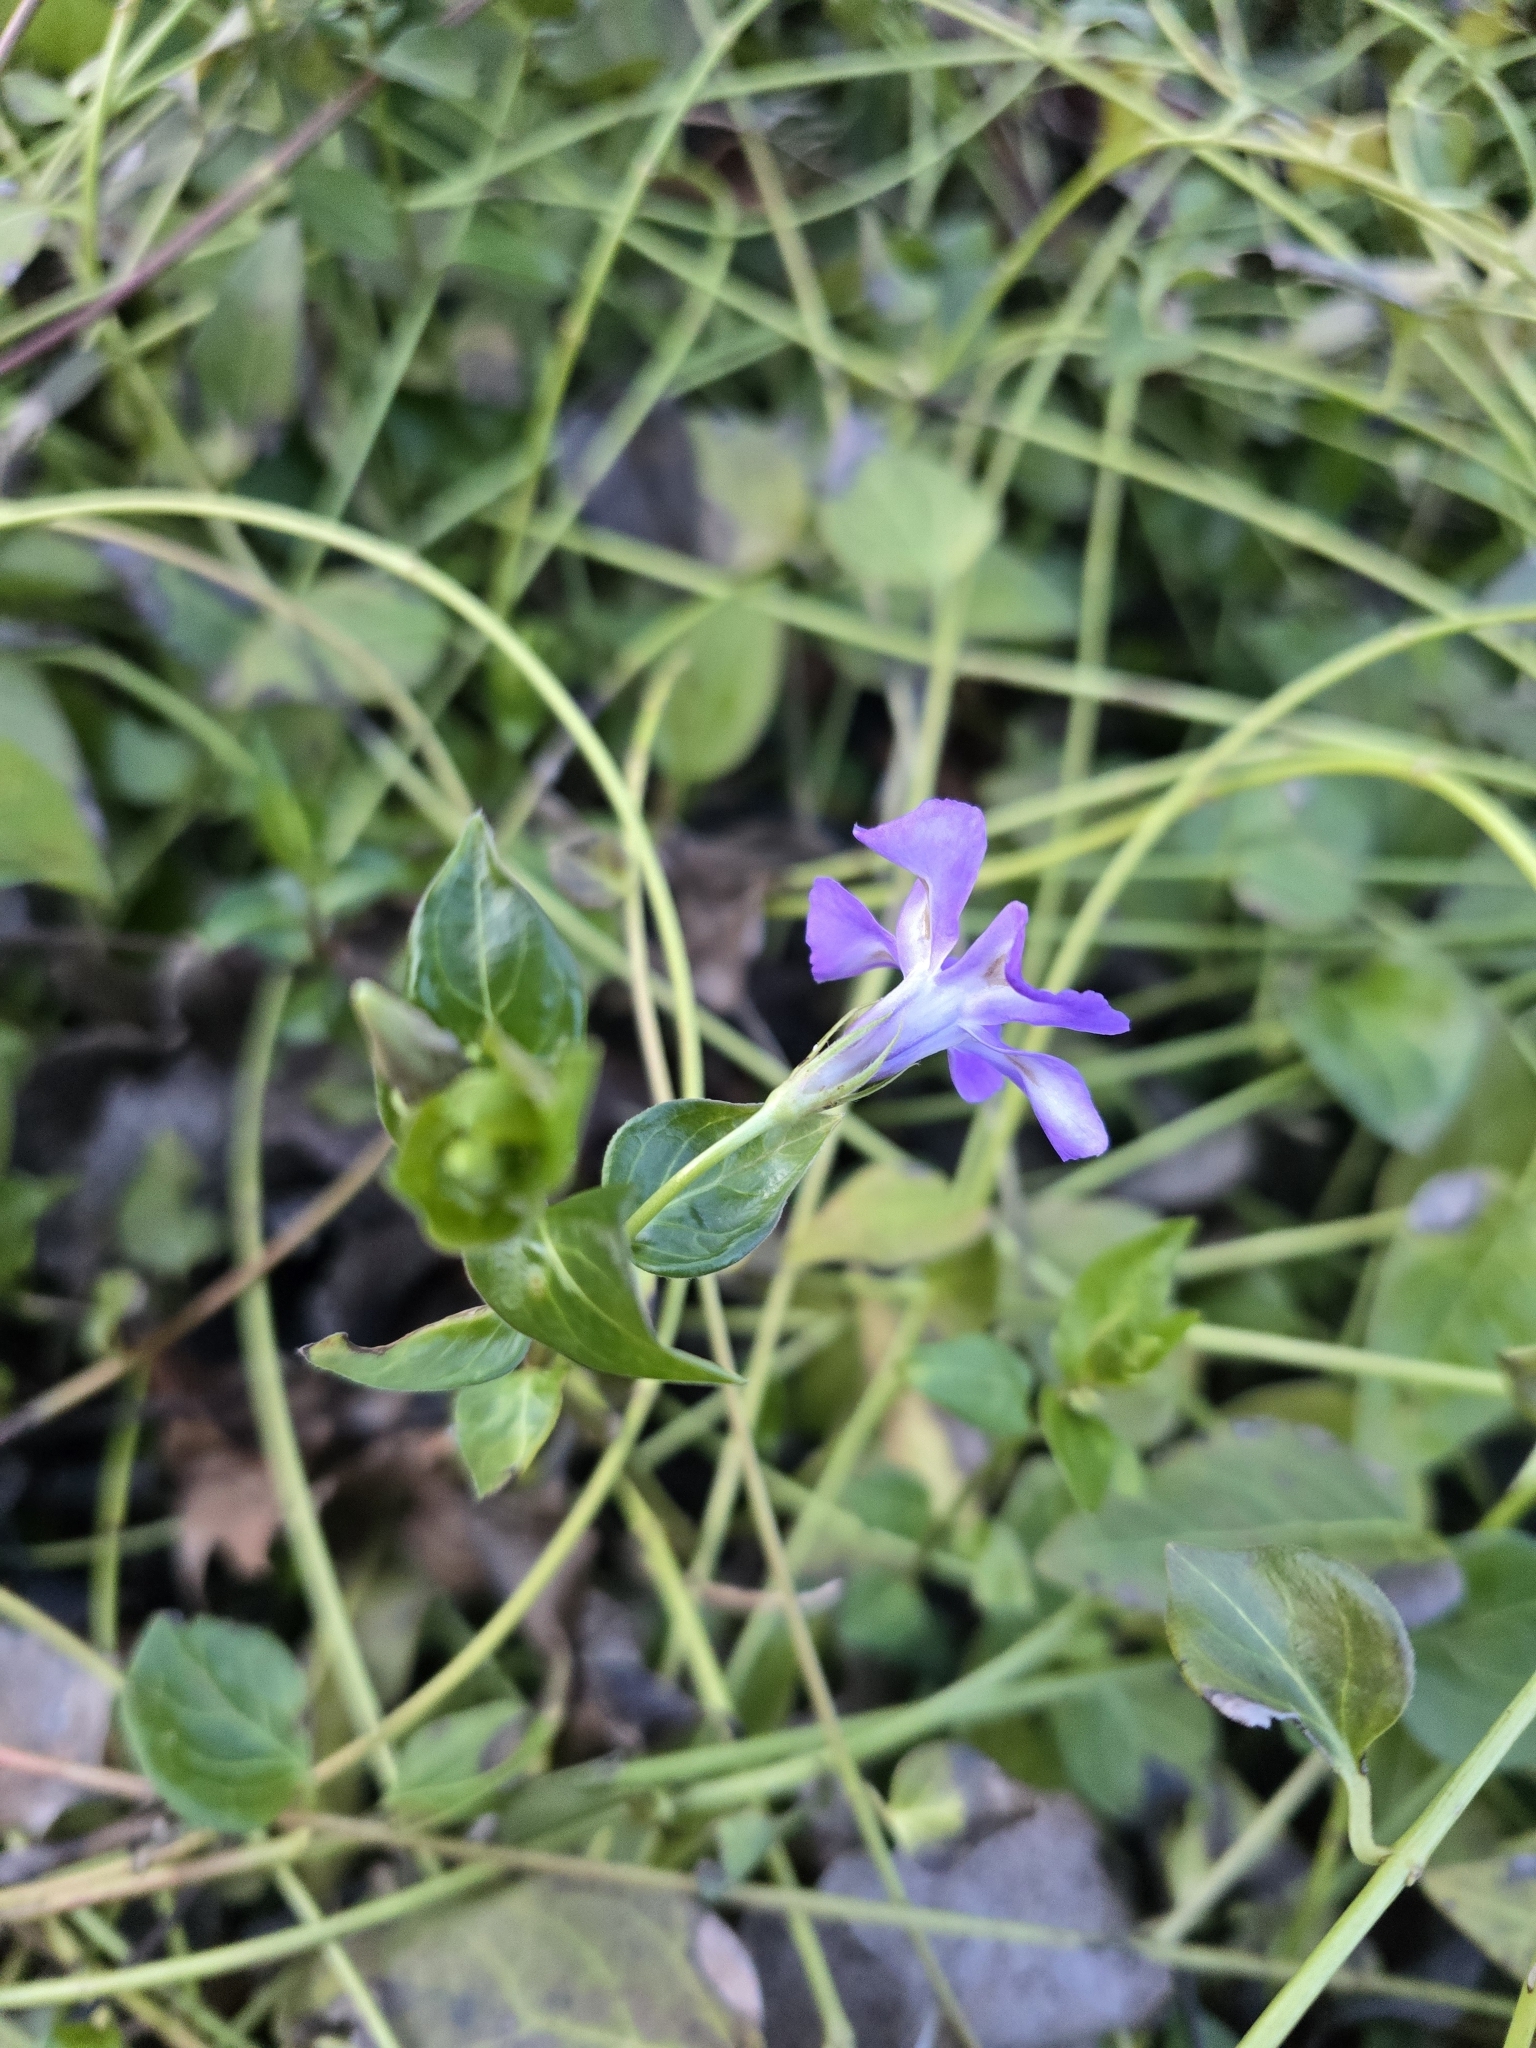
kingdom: Plantae
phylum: Tracheophyta
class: Magnoliopsida
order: Gentianales
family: Apocynaceae
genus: Vinca
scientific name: Vinca major
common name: Greater periwinkle
